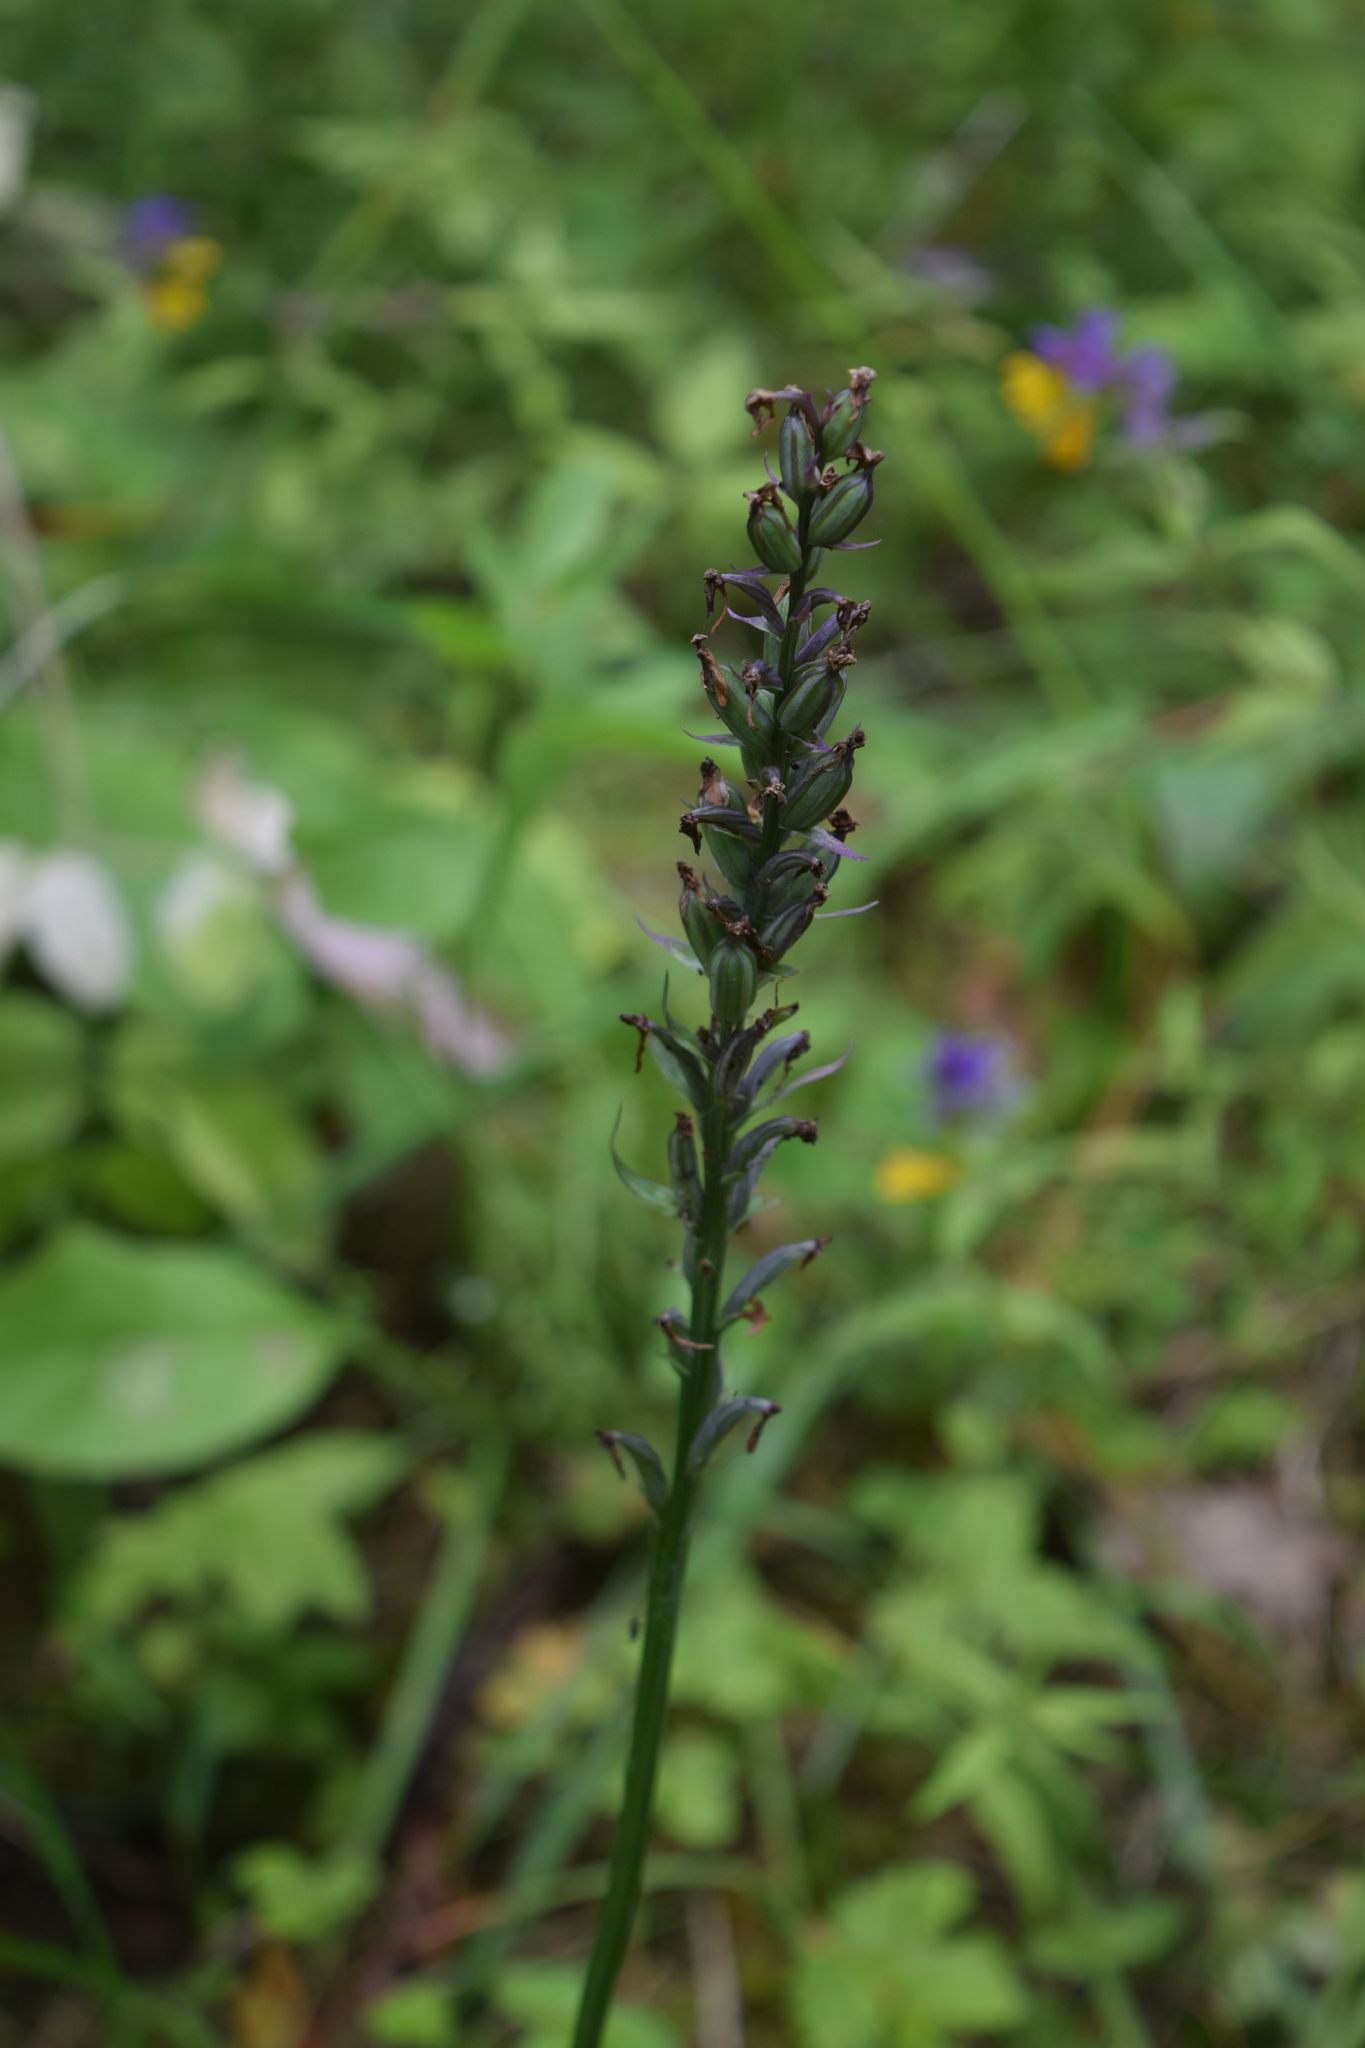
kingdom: Plantae
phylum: Tracheophyta
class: Liliopsida
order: Asparagales
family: Orchidaceae
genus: Dactylorhiza
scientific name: Dactylorhiza maculata
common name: Heath spotted-orchid
